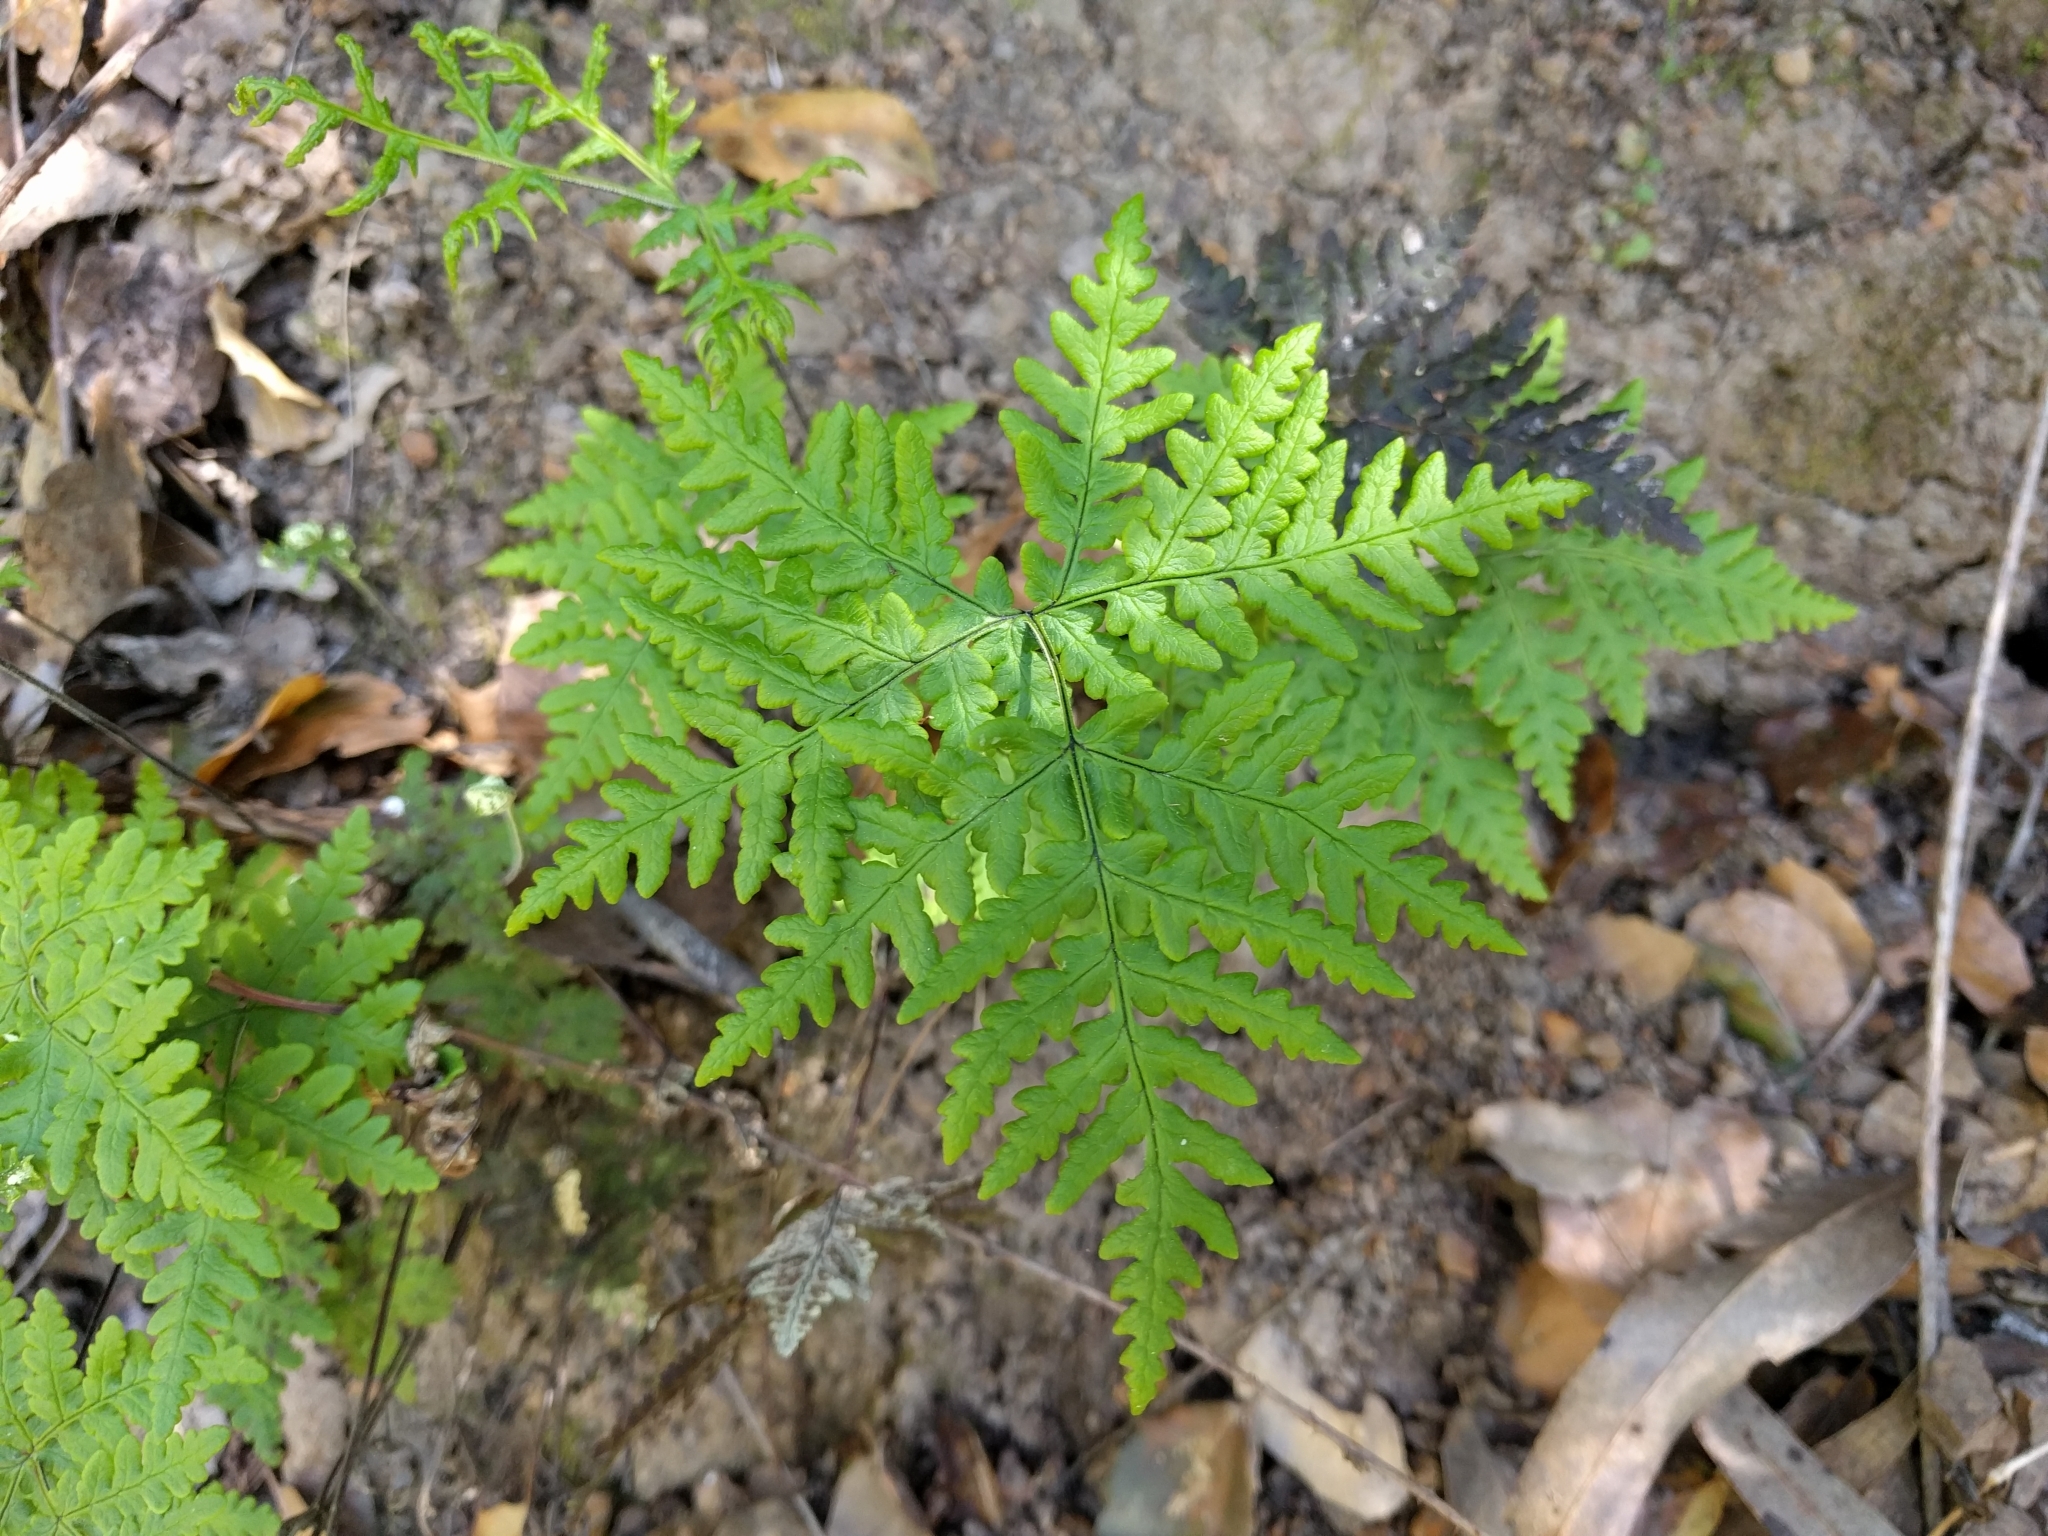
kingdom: Plantae
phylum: Tracheophyta
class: Polypodiopsida
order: Polypodiales
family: Pteridaceae
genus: Pentagramma
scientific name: Pentagramma triangularis
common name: Gold fern
